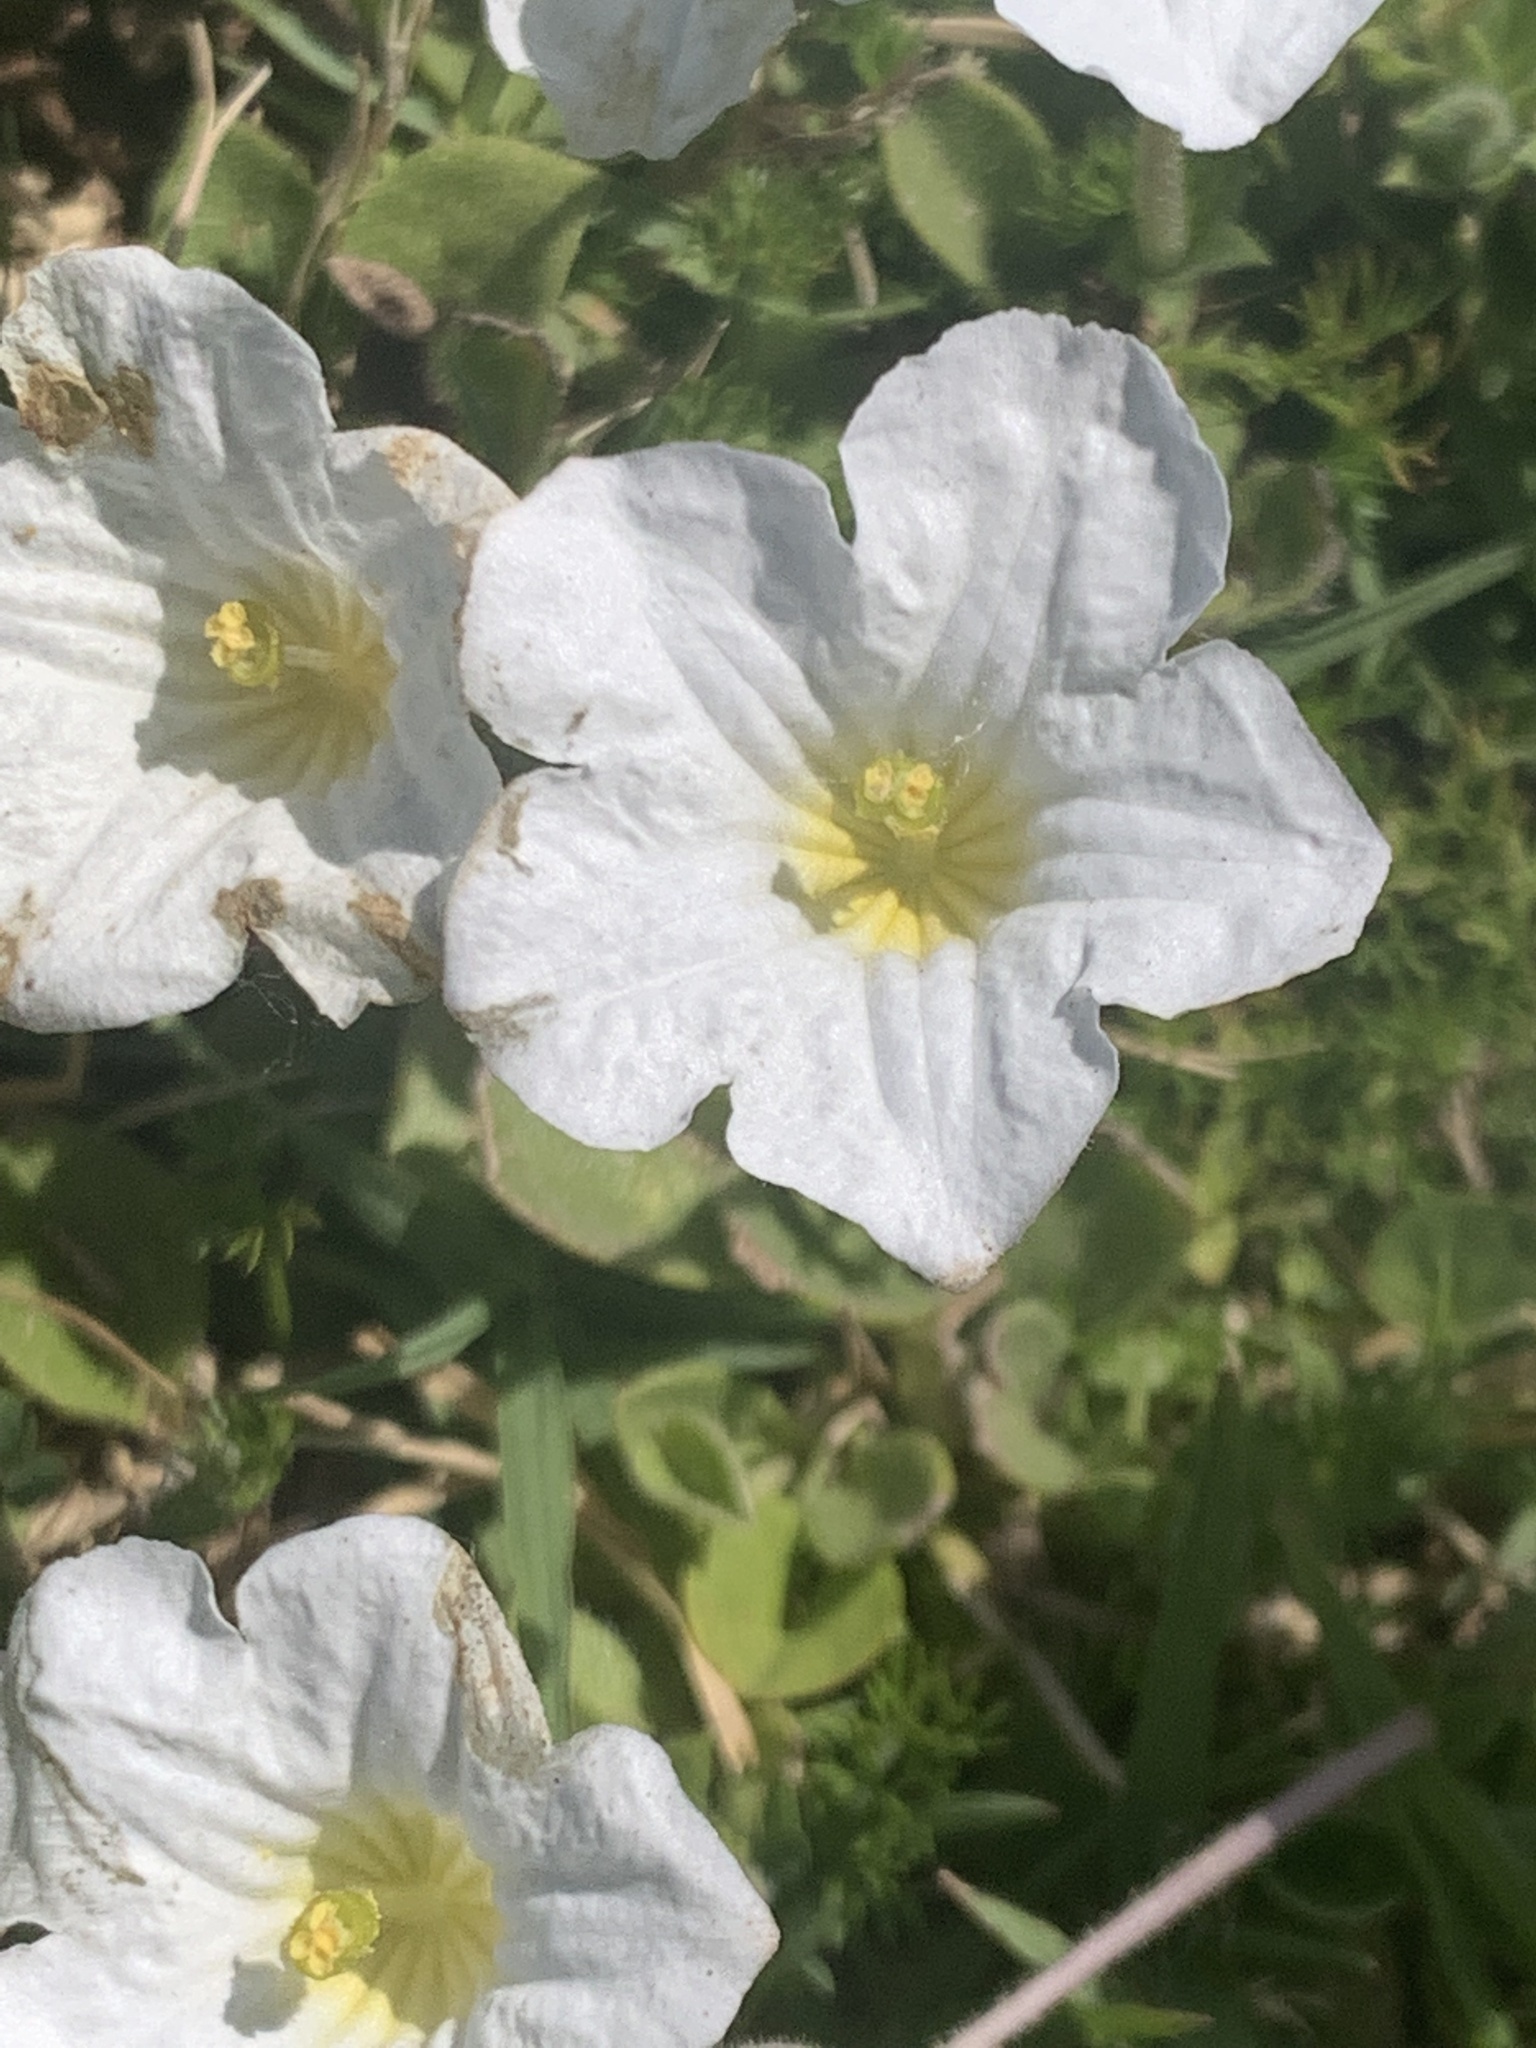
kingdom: Plantae
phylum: Tracheophyta
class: Magnoliopsida
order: Solanales
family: Solanaceae
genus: Nierembergia
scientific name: Nierembergia calycina
